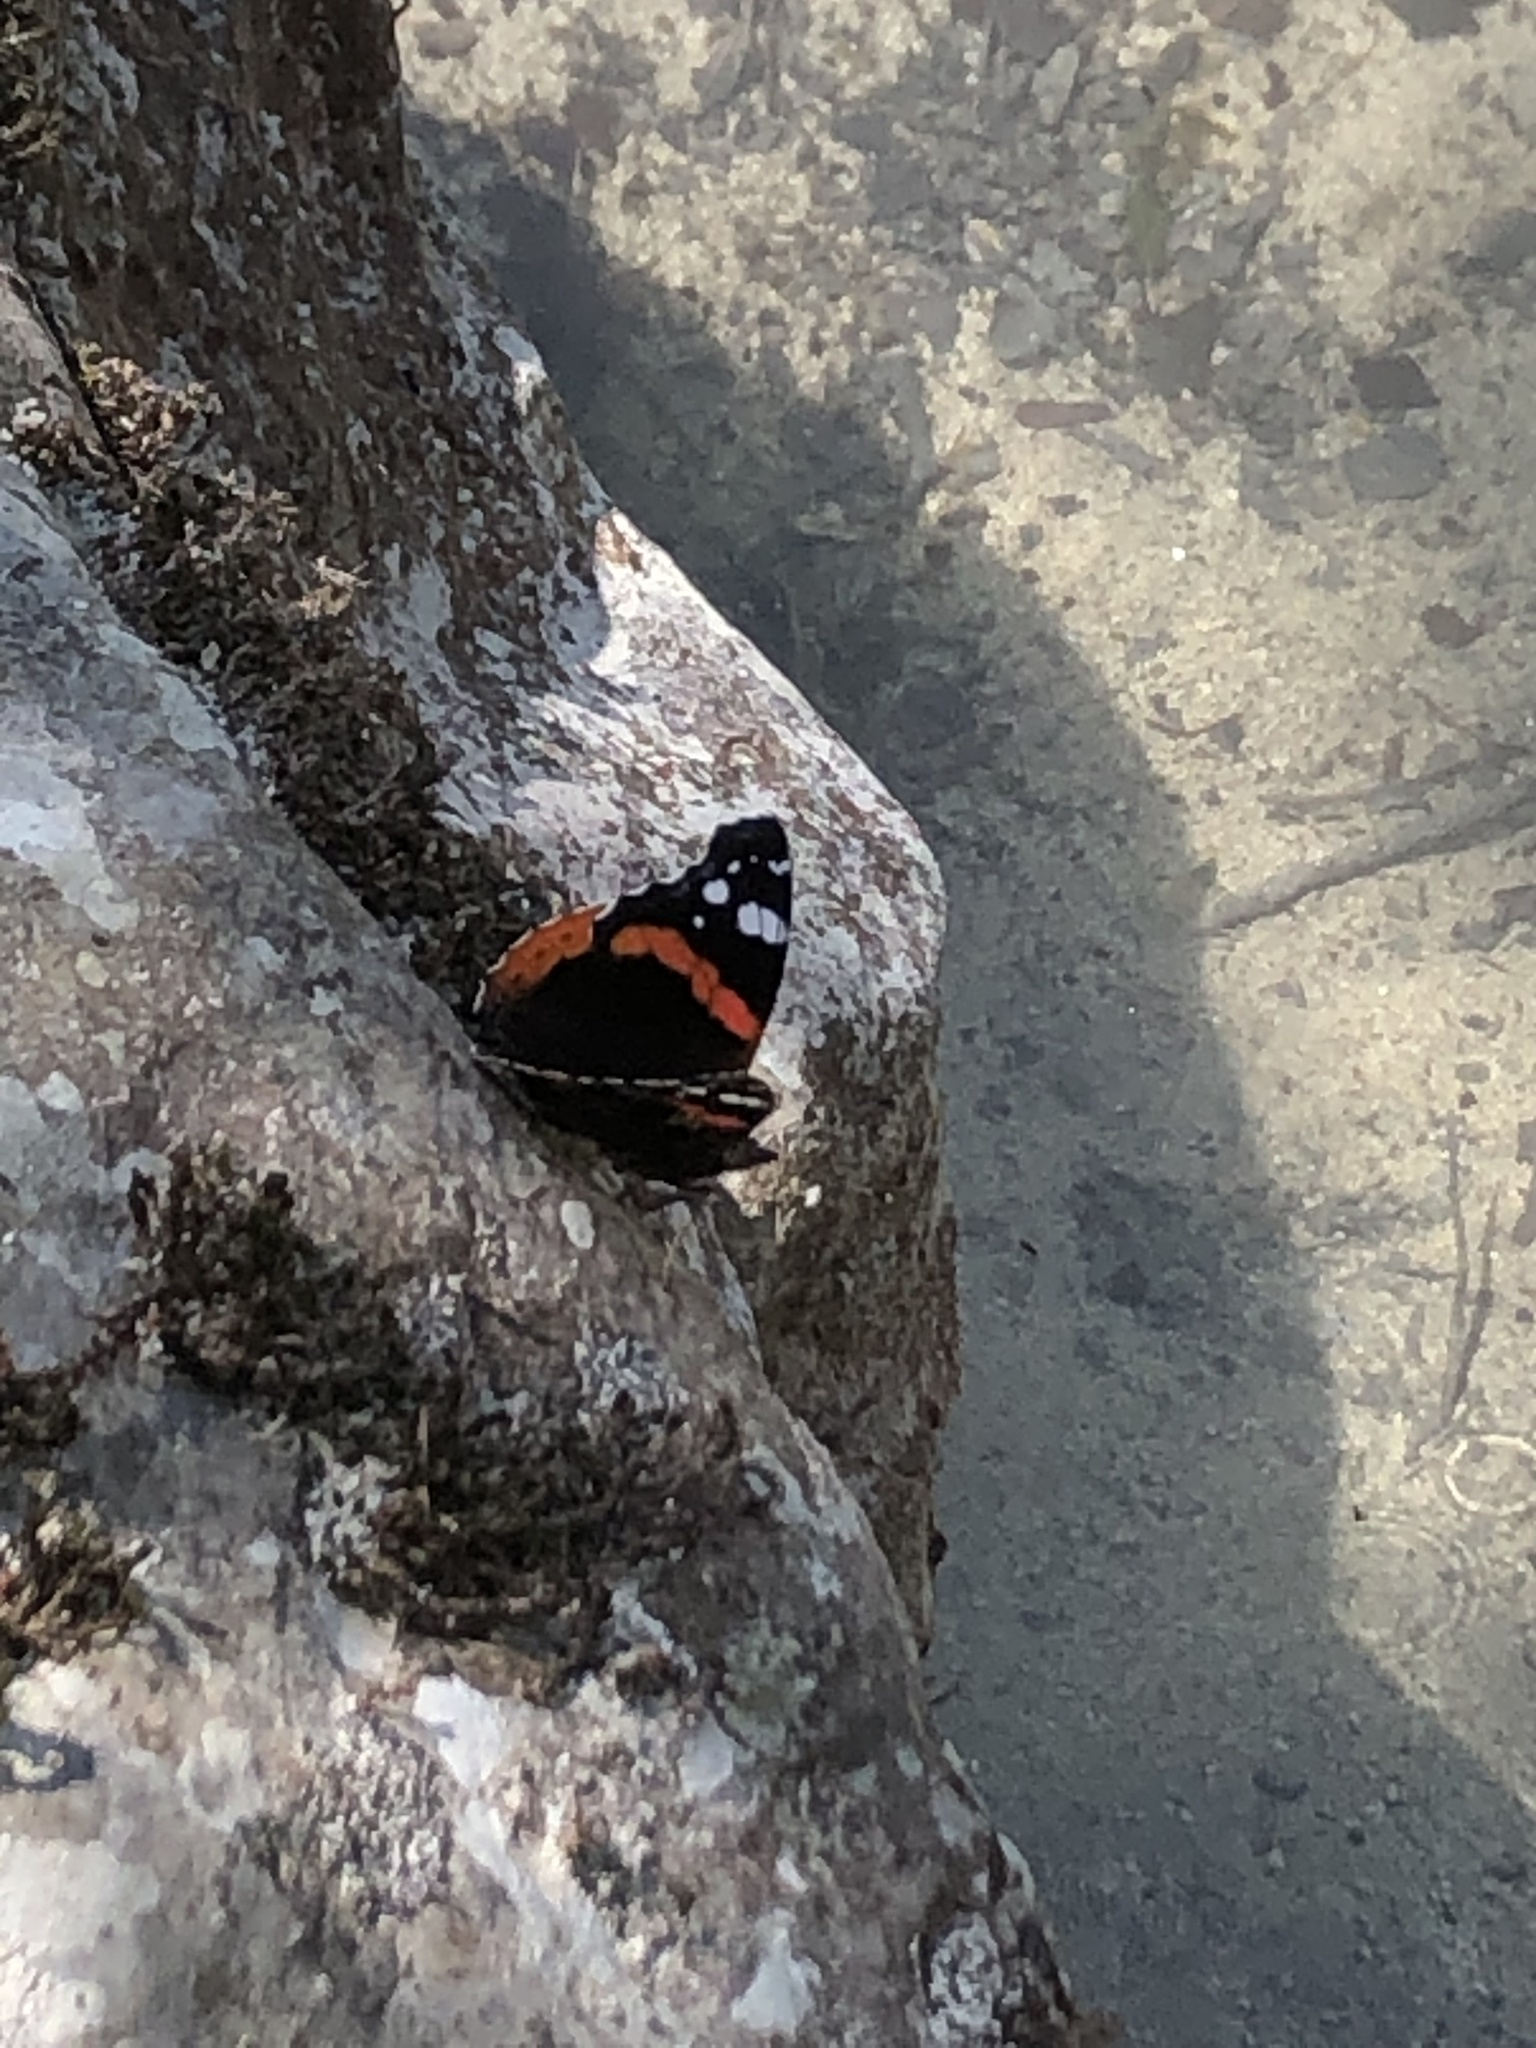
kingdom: Animalia
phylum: Arthropoda
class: Insecta
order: Lepidoptera
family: Nymphalidae
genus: Vanessa
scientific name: Vanessa atalanta
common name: Red admiral
